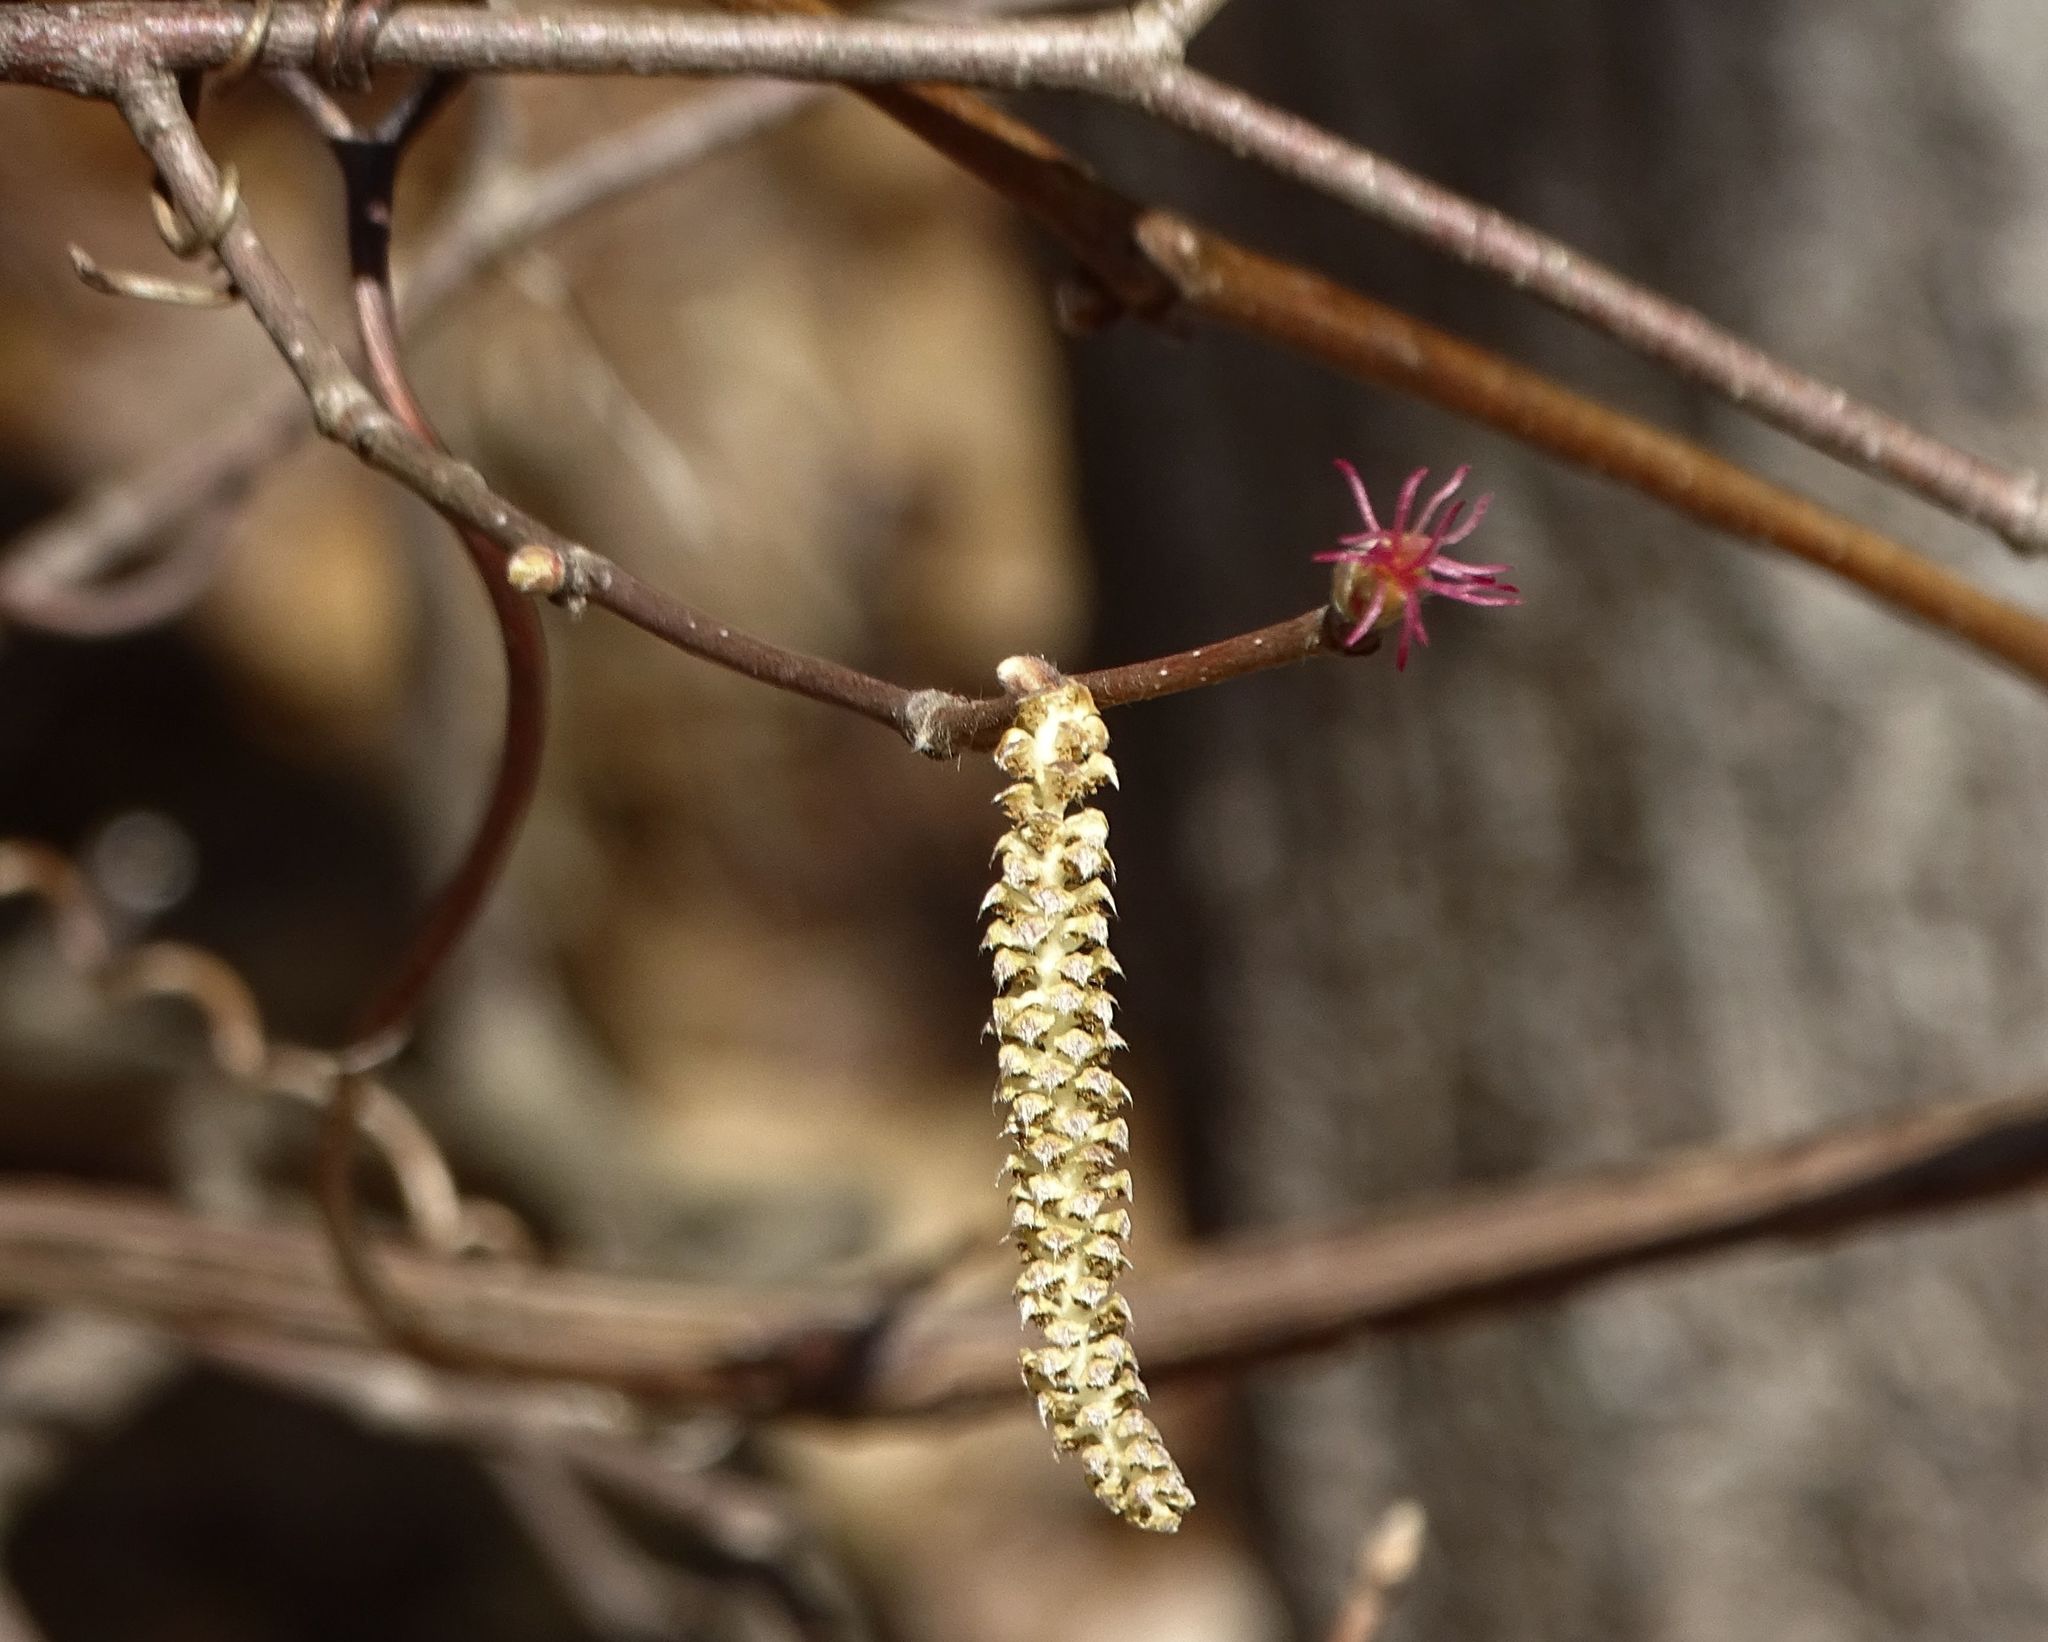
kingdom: Plantae
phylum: Tracheophyta
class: Magnoliopsida
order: Fagales
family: Betulaceae
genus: Corylus
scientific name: Corylus cornuta
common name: Beaked hazel
